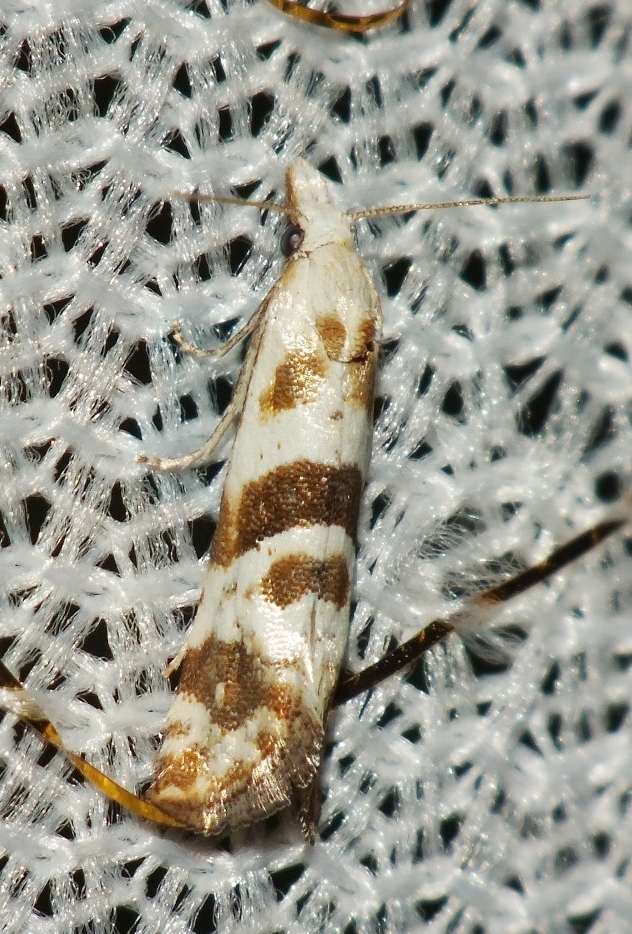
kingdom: Animalia
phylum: Arthropoda
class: Insecta
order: Lepidoptera
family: Tortricidae
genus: Cochylimorpha
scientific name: Cochylimorpha discolorana
